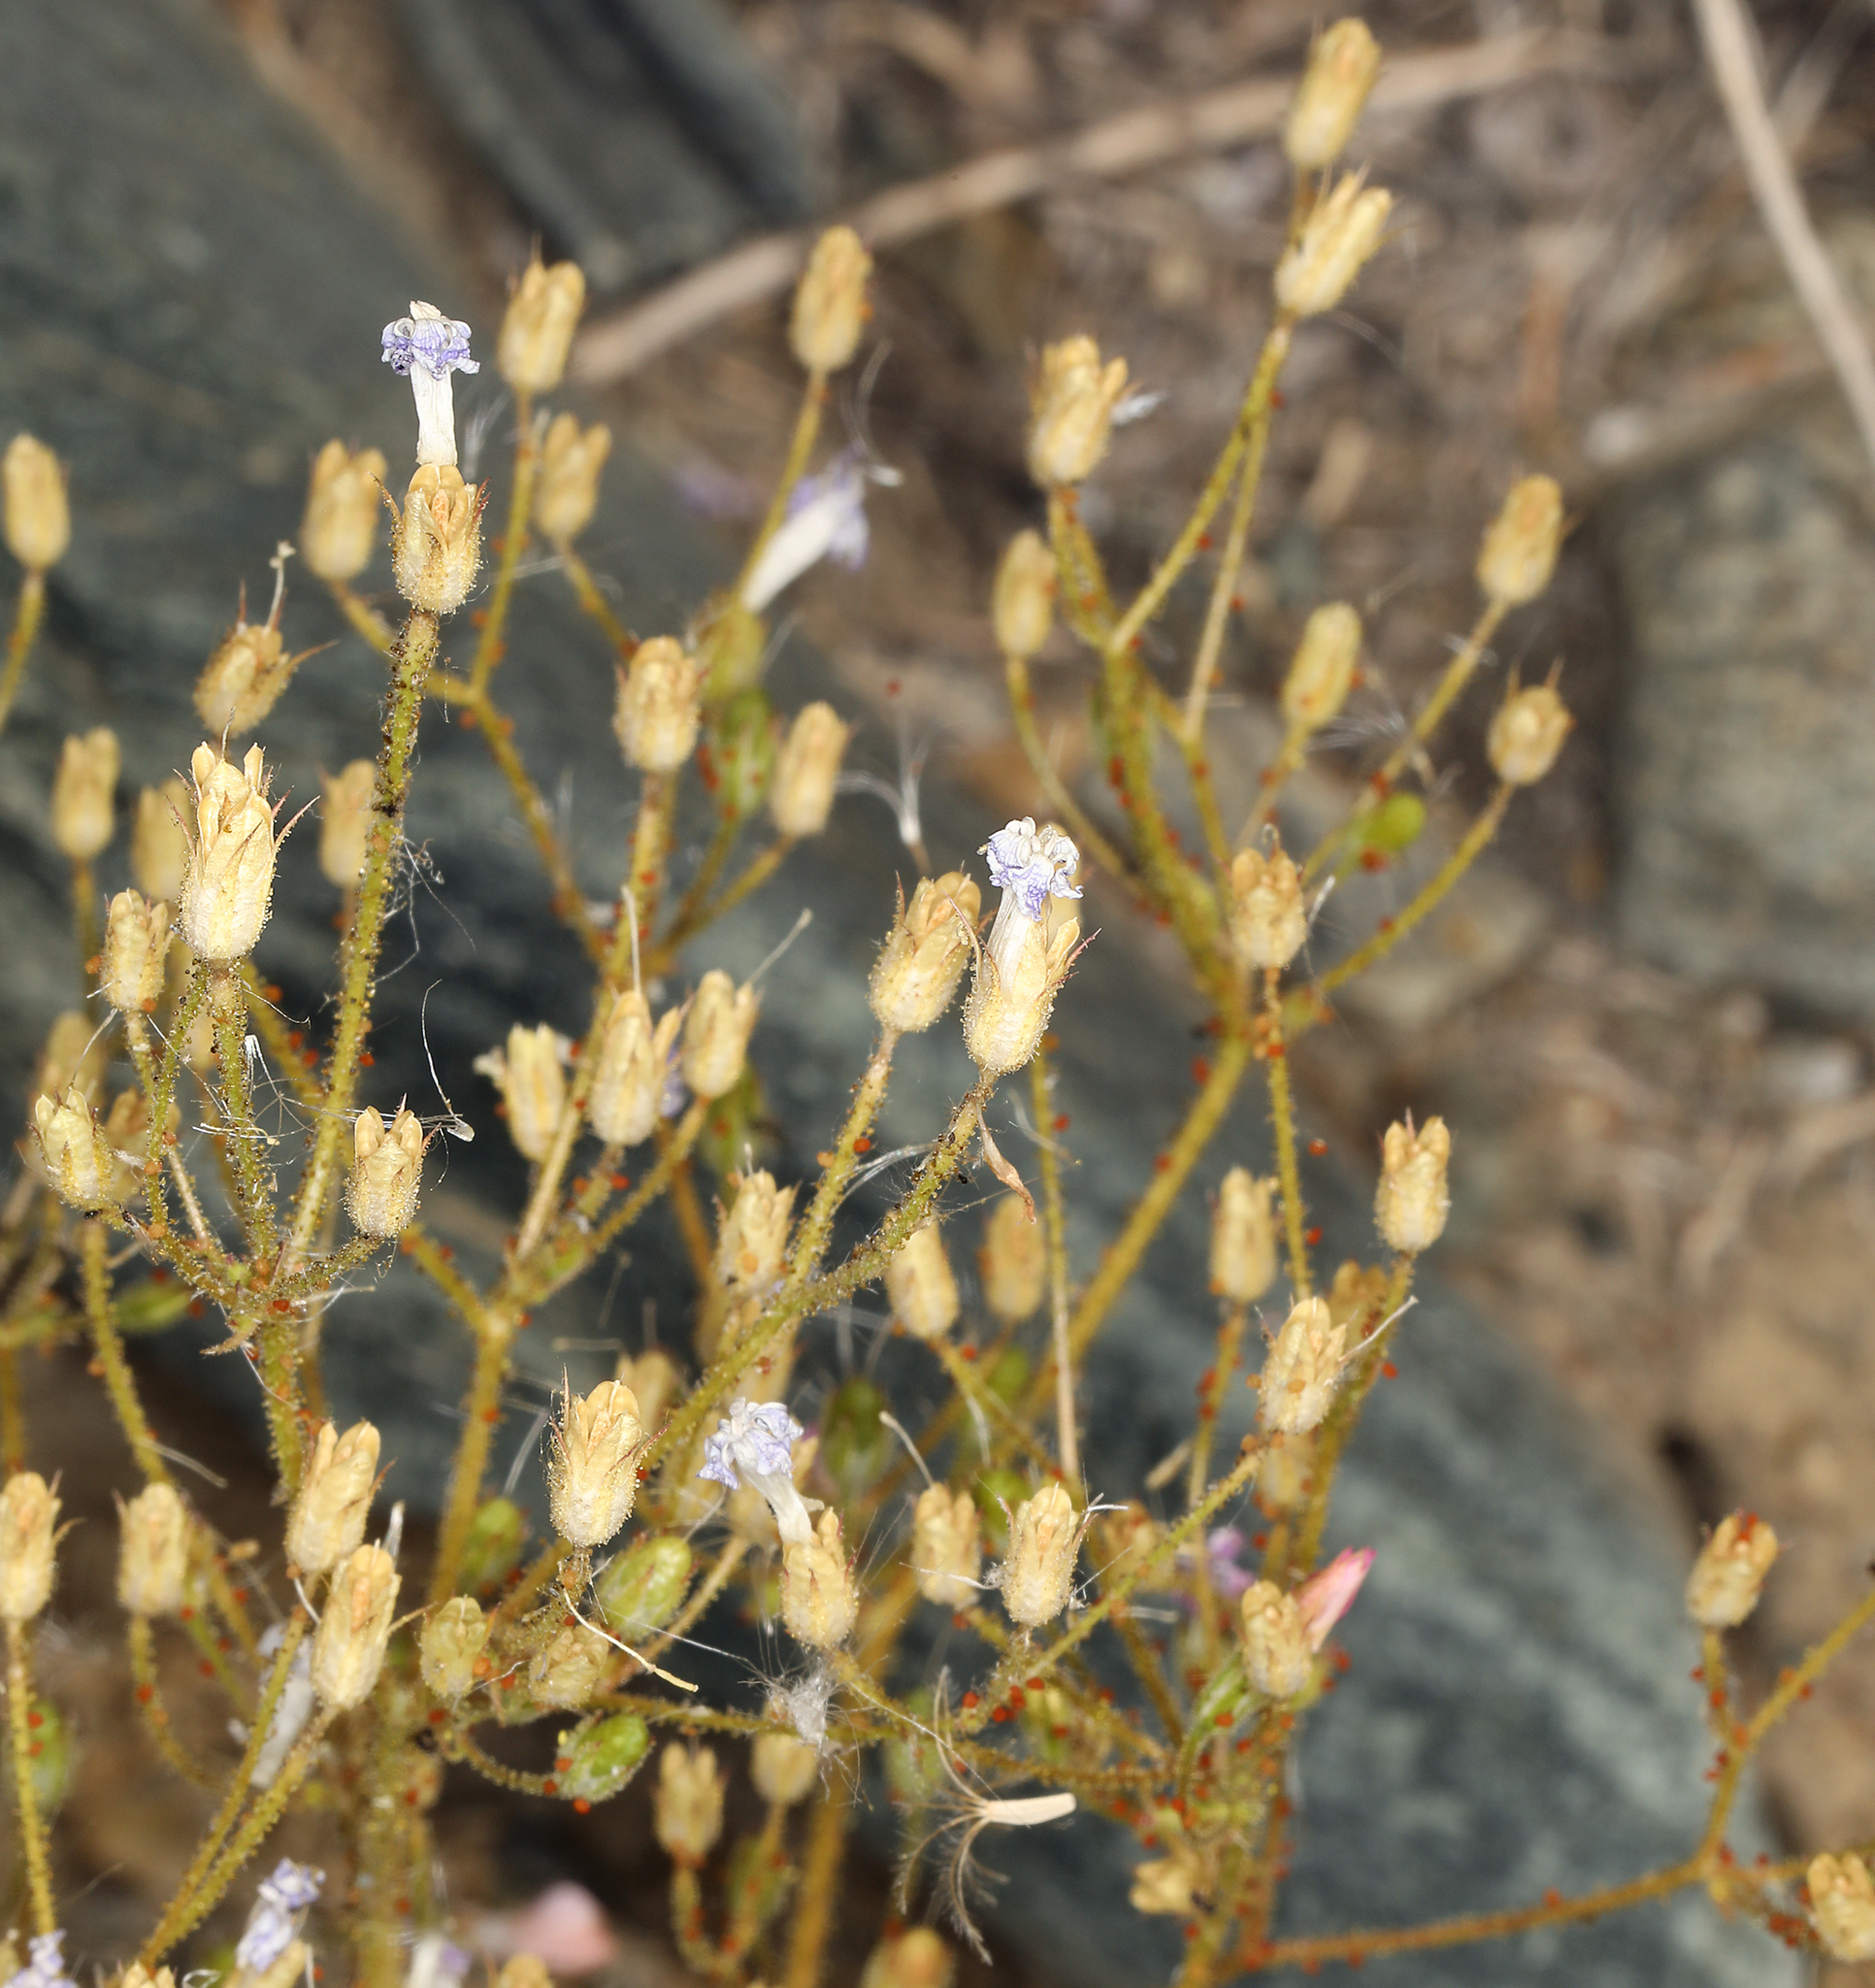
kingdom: Plantae
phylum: Tracheophyta
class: Magnoliopsida
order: Ericales
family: Polemoniaceae
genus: Aliciella
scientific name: Aliciella latifolia
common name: Broad-leaf gilia
